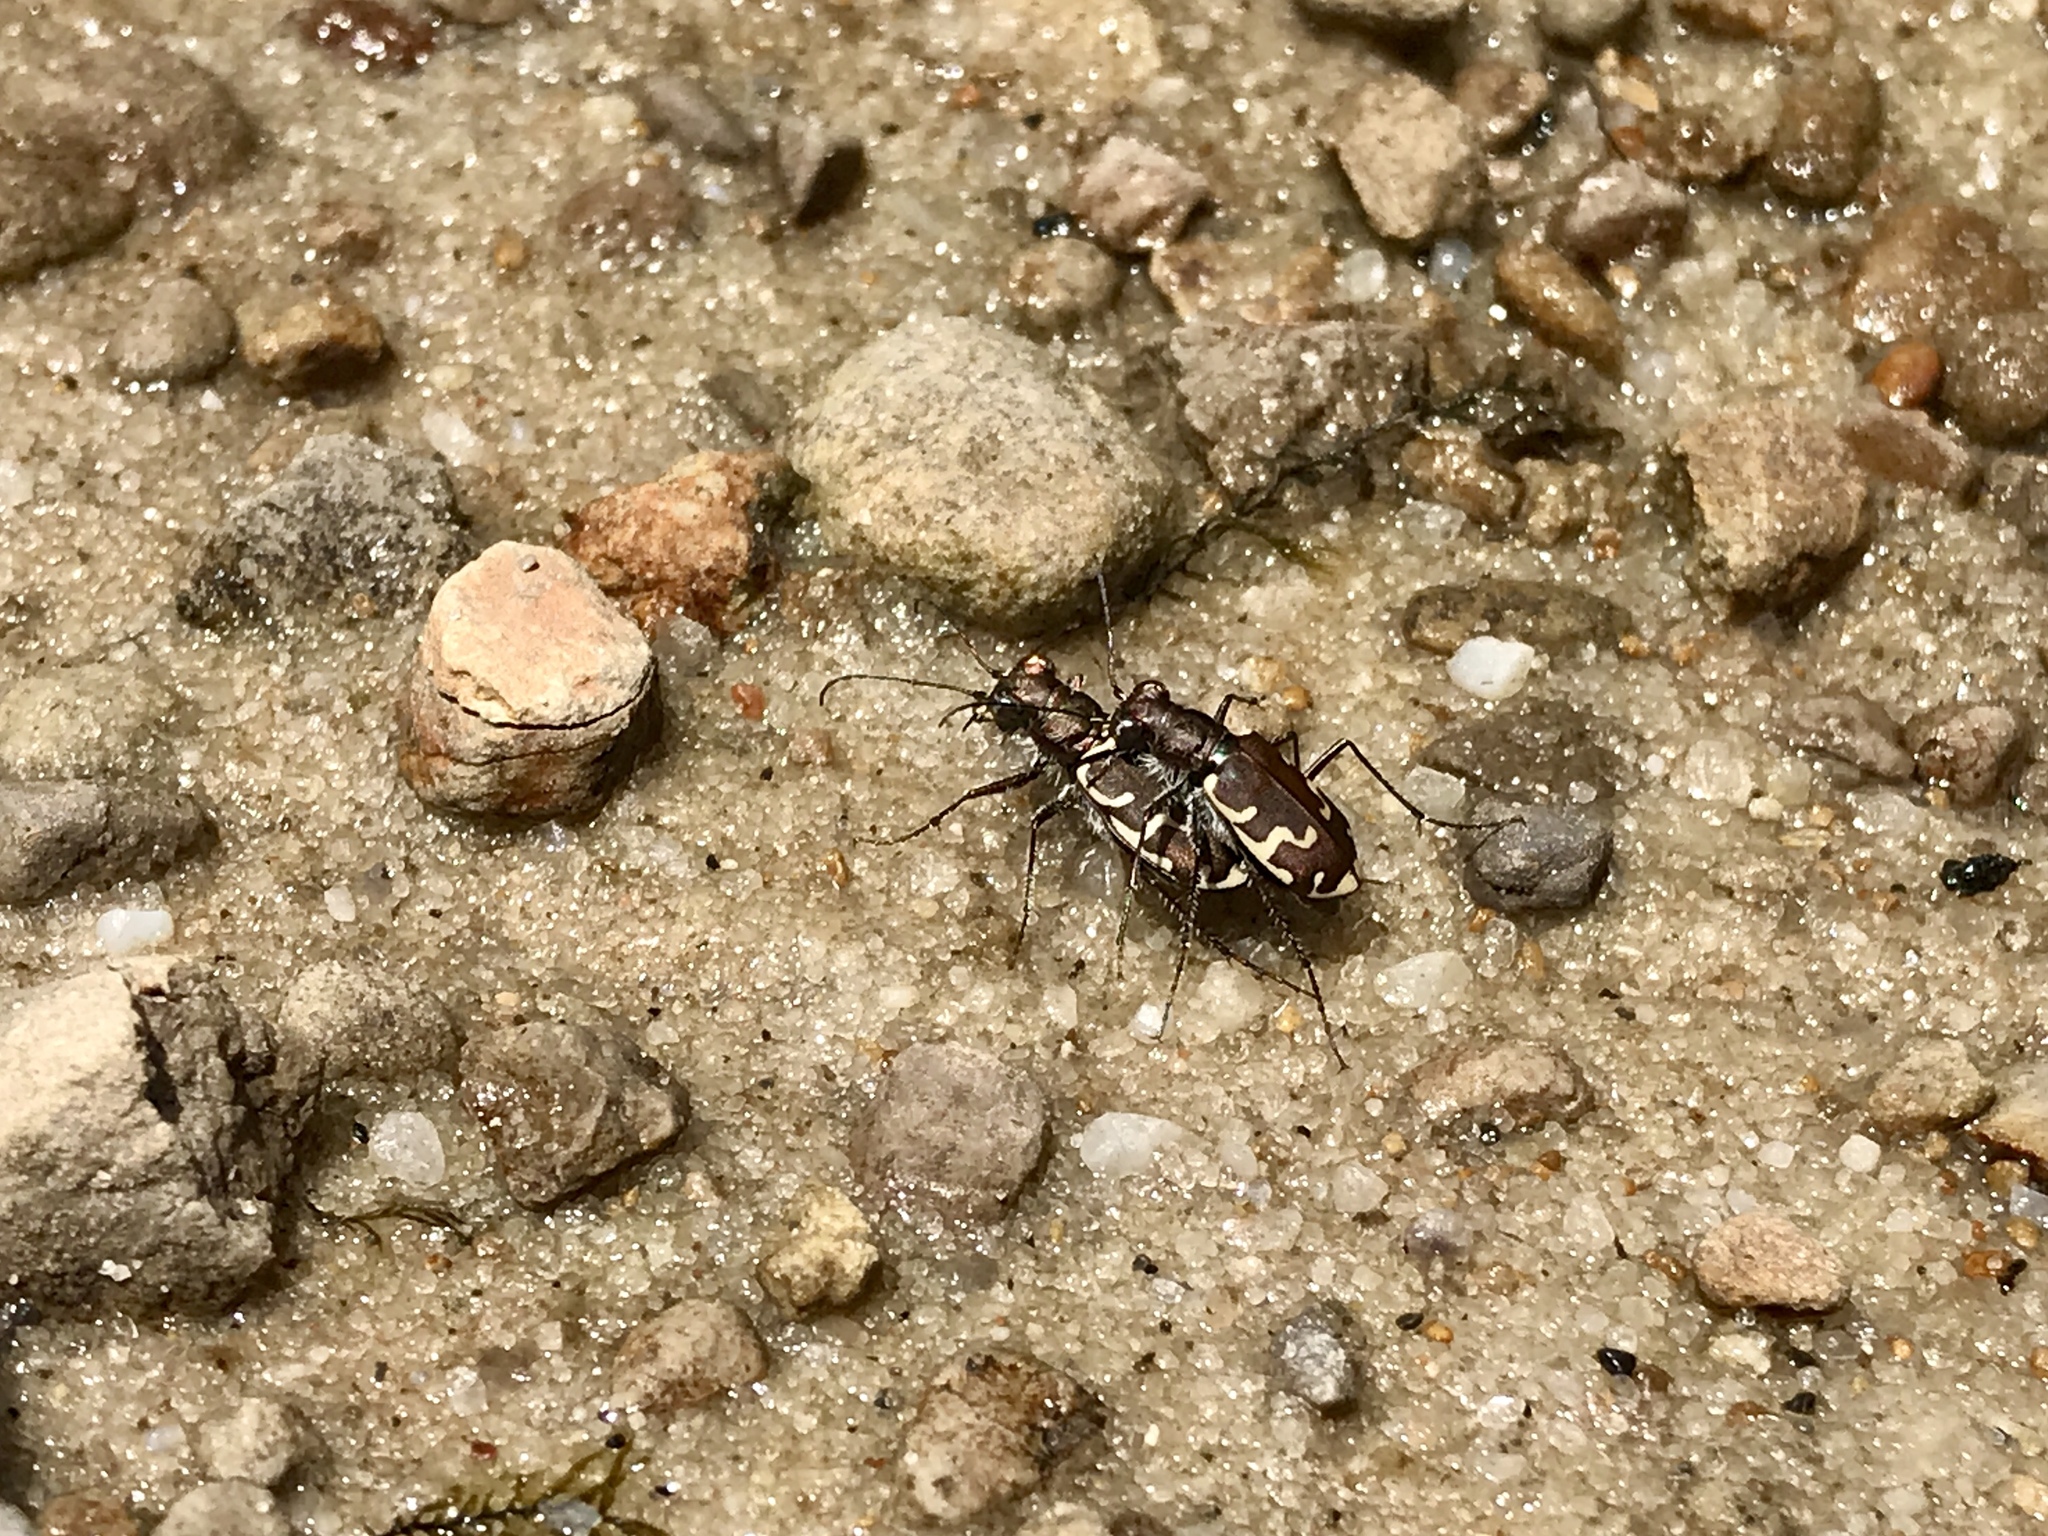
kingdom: Animalia
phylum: Arthropoda
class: Insecta
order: Coleoptera
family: Carabidae
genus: Cicindela
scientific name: Cicindela repanda
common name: Bronzed tiger beetle
